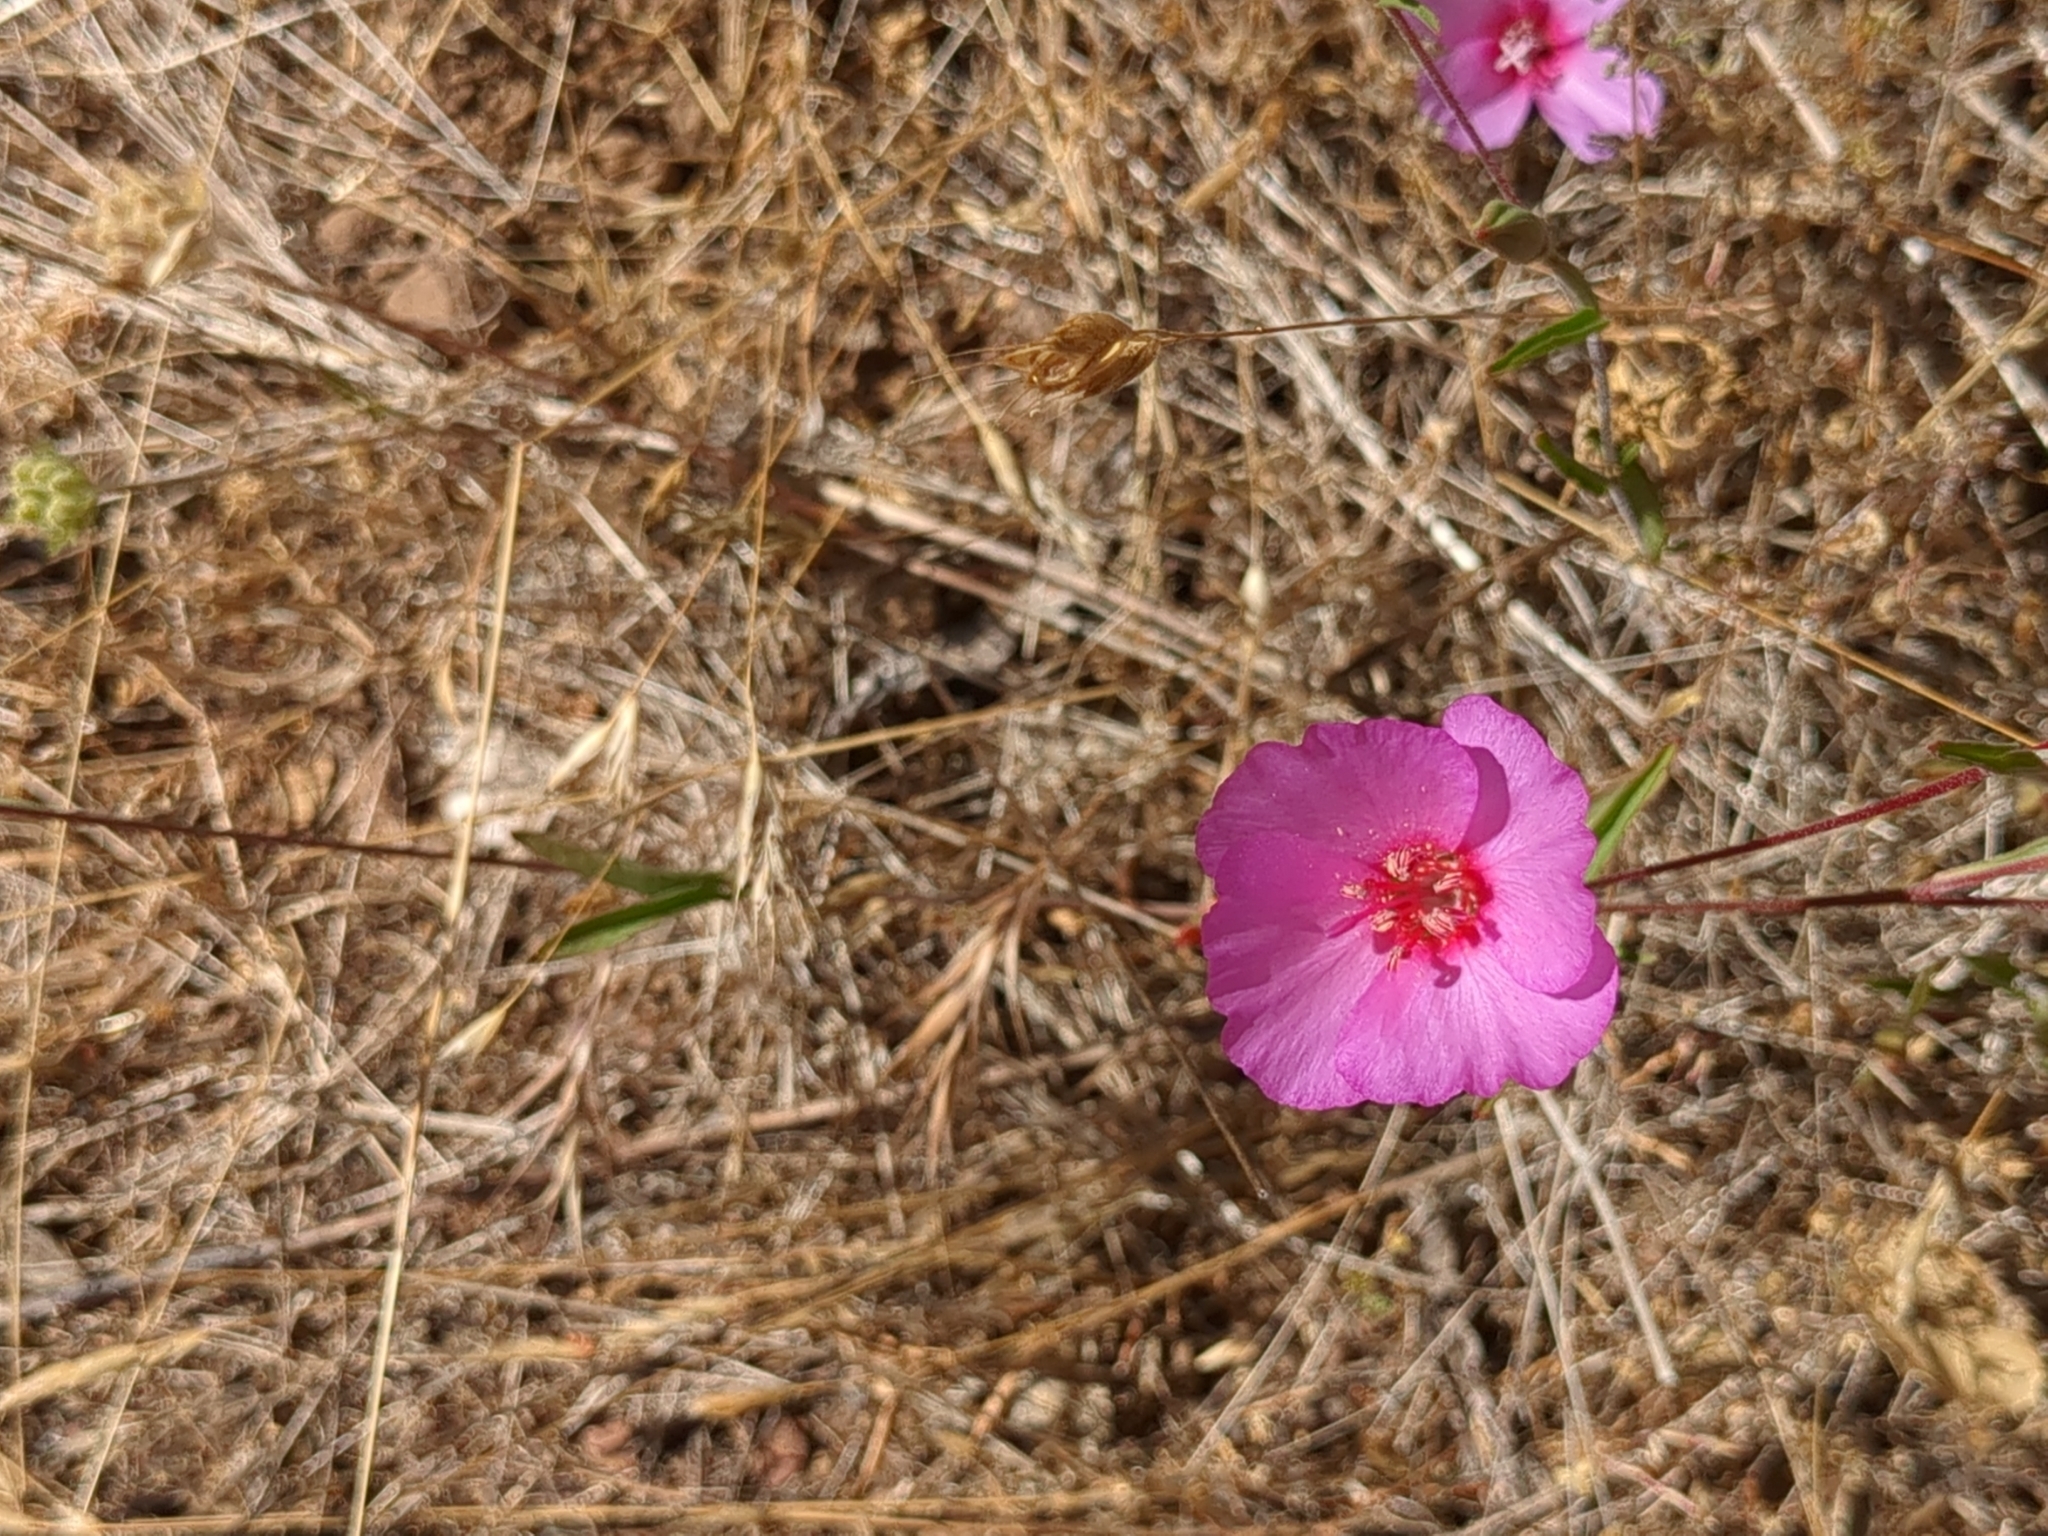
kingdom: Plantae
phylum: Tracheophyta
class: Magnoliopsida
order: Myrtales
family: Onagraceae
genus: Clarkia
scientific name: Clarkia rubicunda
